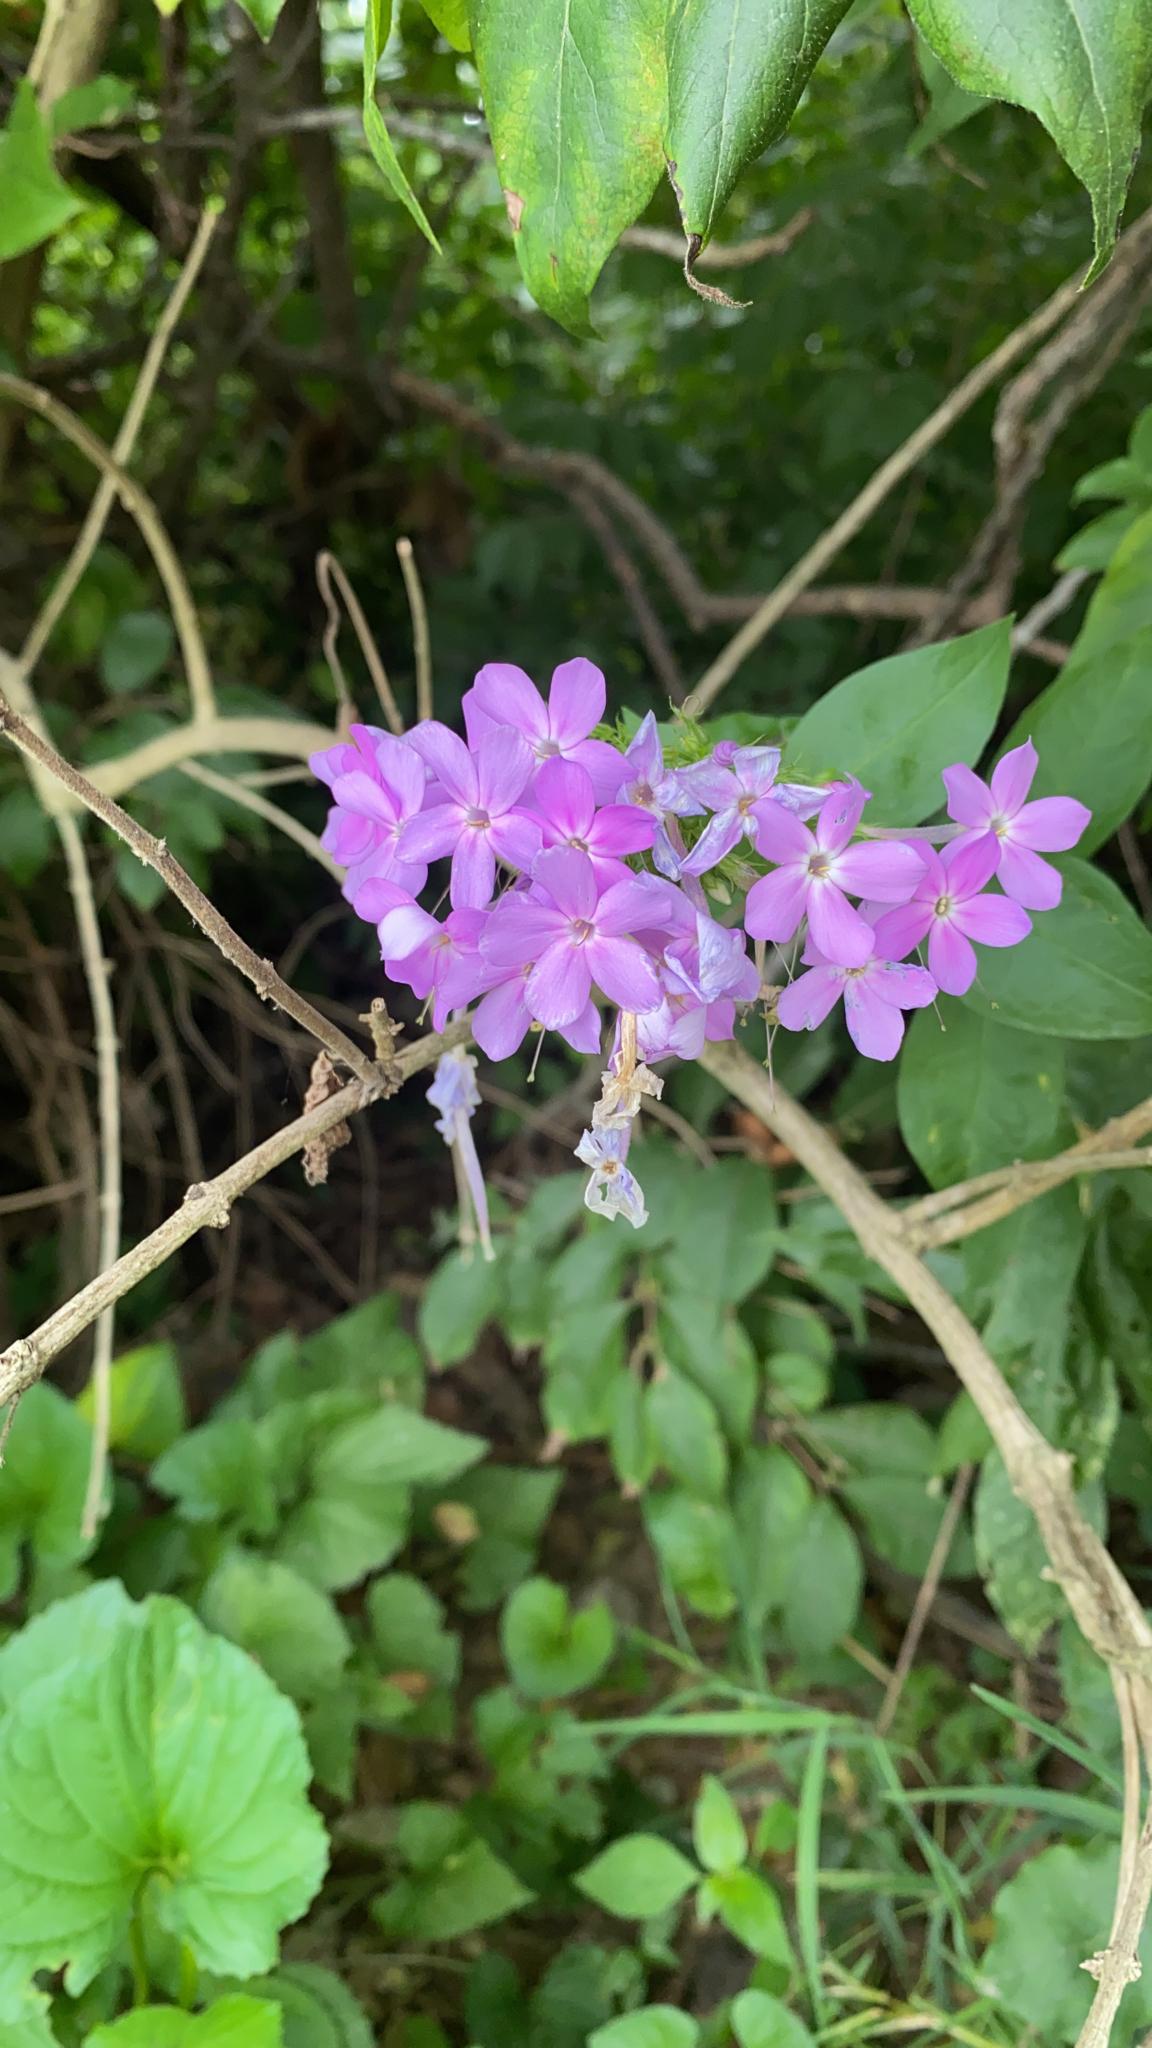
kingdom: Plantae
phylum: Tracheophyta
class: Magnoliopsida
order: Ericales
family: Polemoniaceae
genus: Phlox
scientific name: Phlox paniculata
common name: Fall phlox
